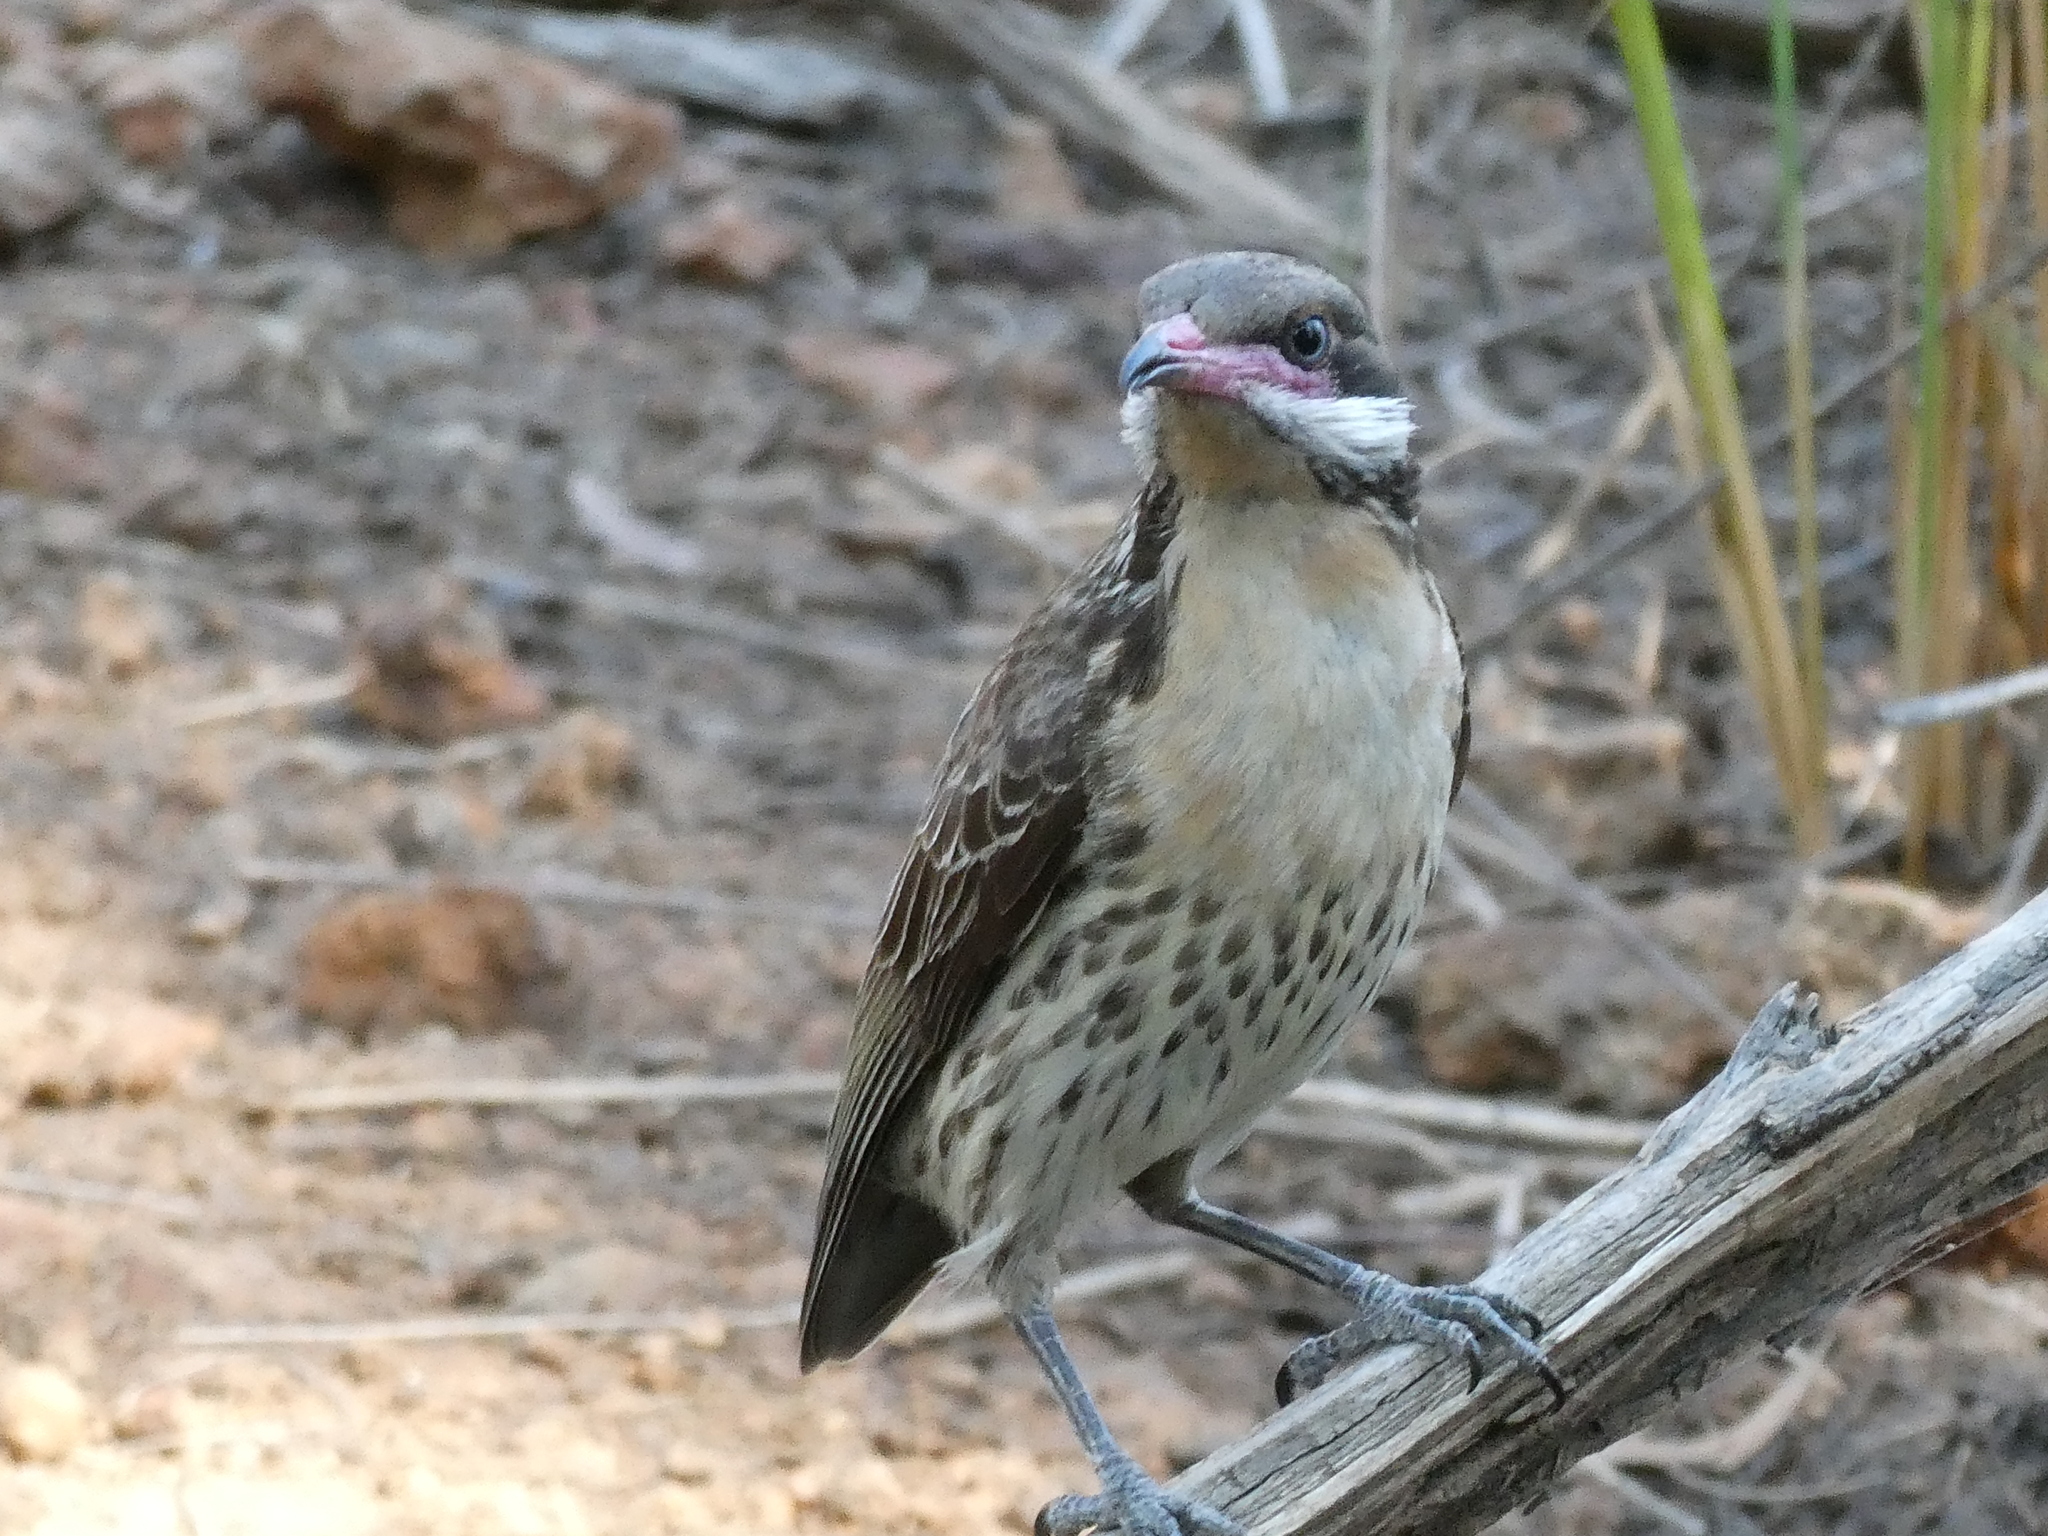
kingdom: Animalia
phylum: Chordata
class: Aves
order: Passeriformes
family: Meliphagidae
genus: Acanthagenys
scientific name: Acanthagenys rufogularis
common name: Spiny-cheeked honeyeater
